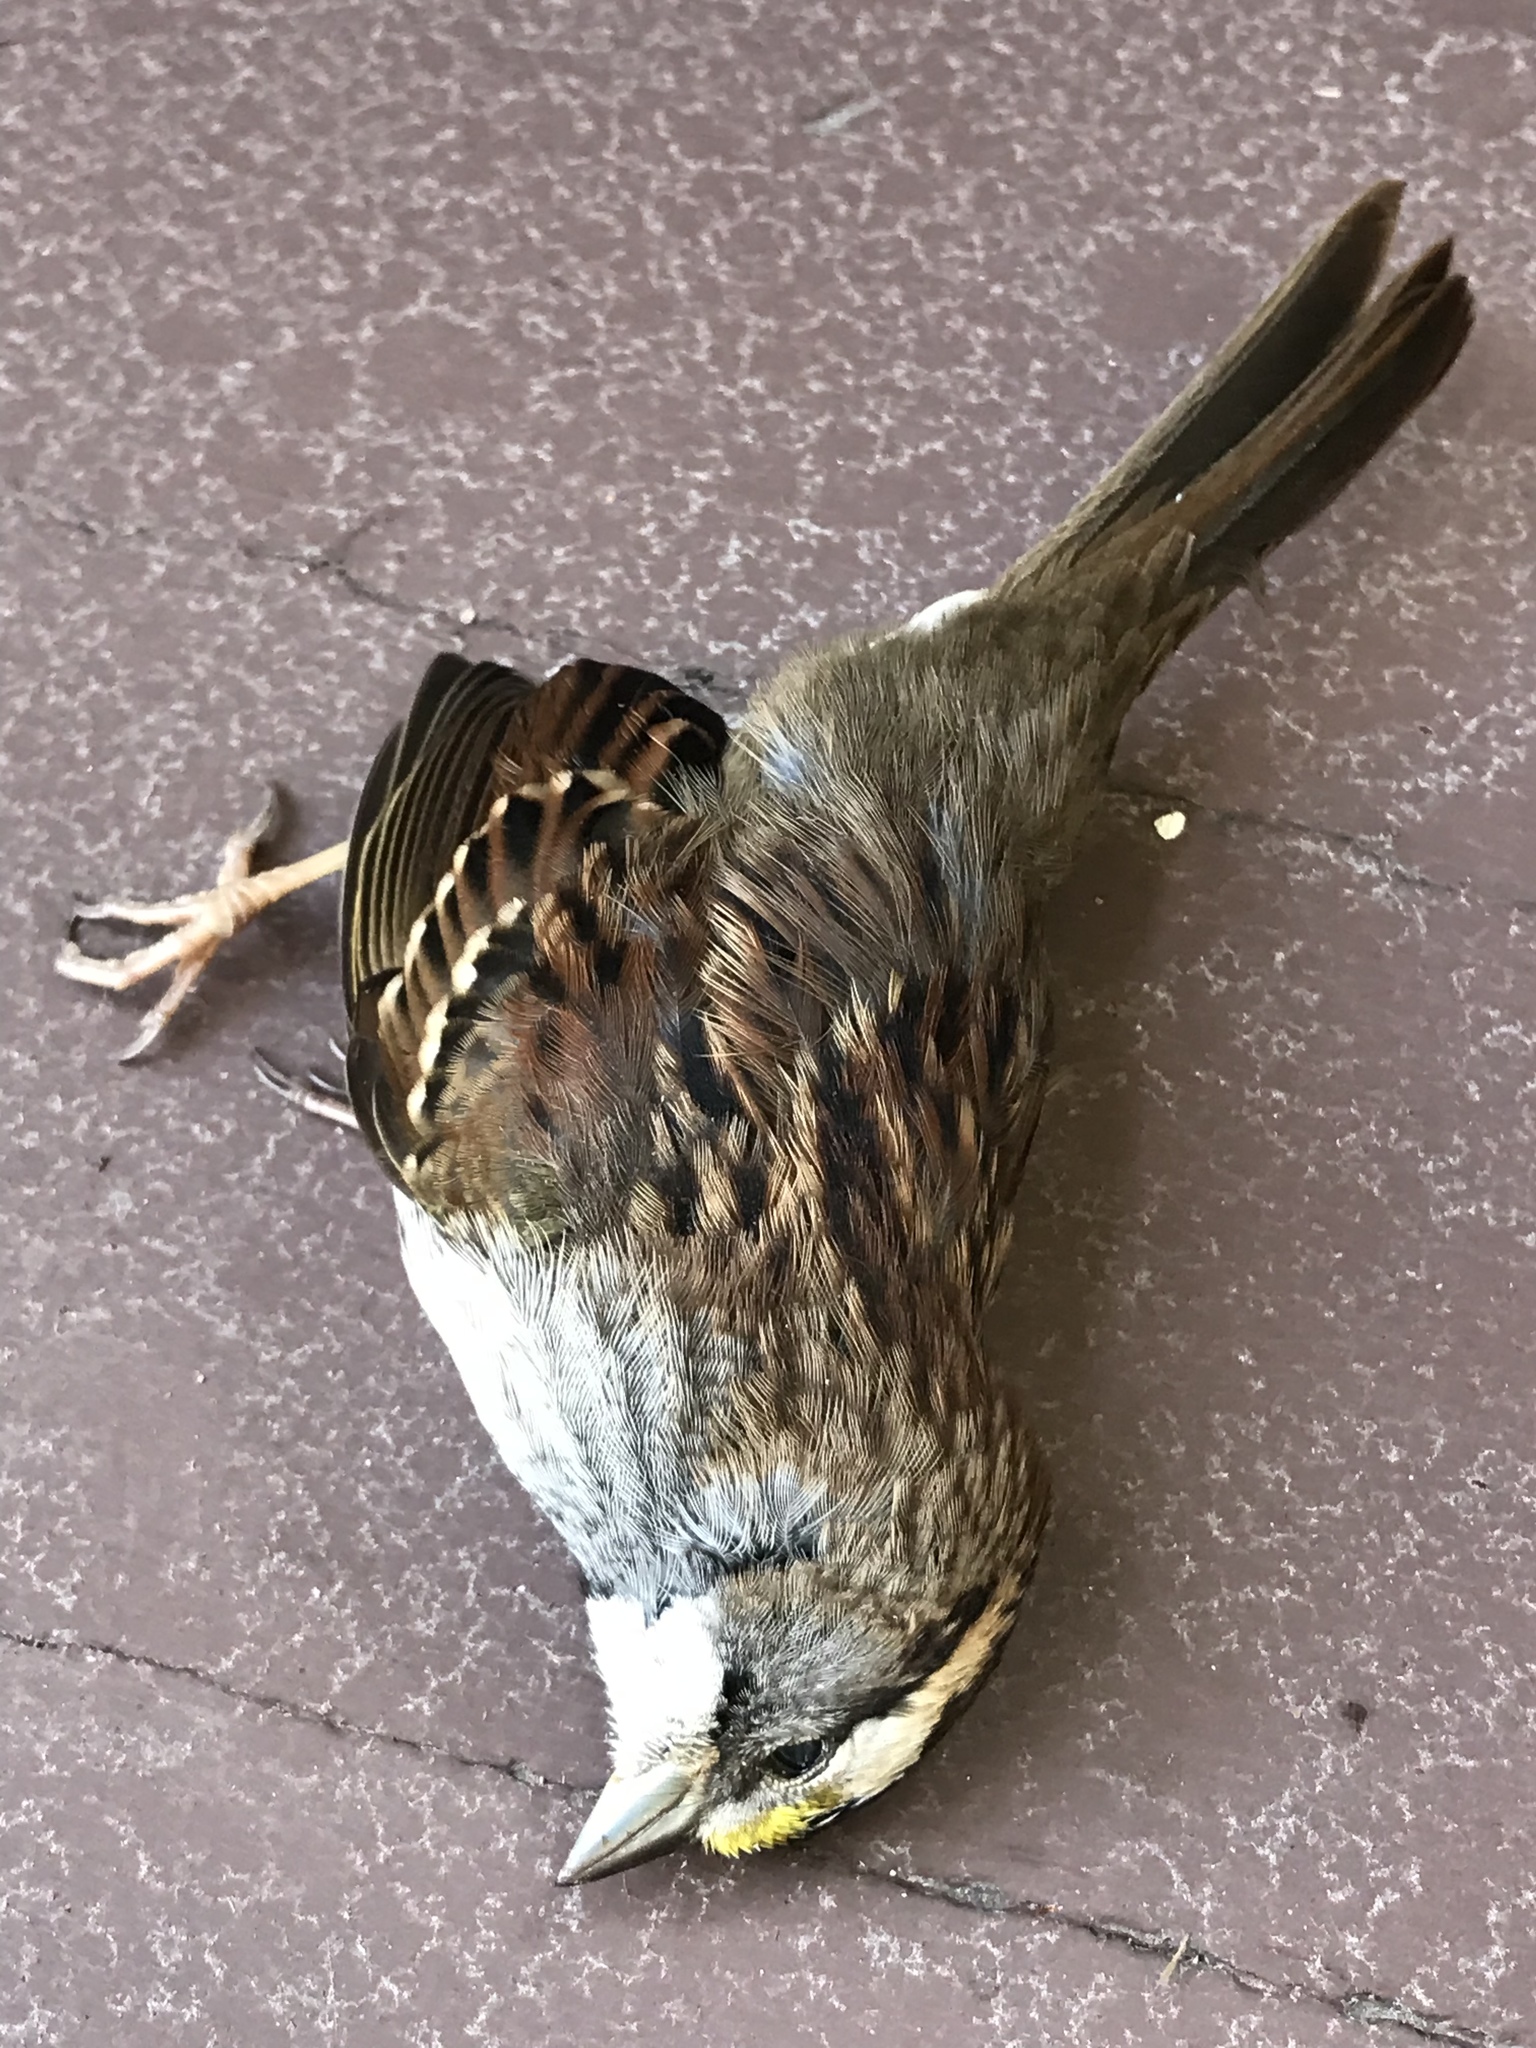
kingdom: Animalia
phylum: Chordata
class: Aves
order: Passeriformes
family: Passerellidae
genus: Zonotrichia
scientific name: Zonotrichia albicollis
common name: White-throated sparrow
